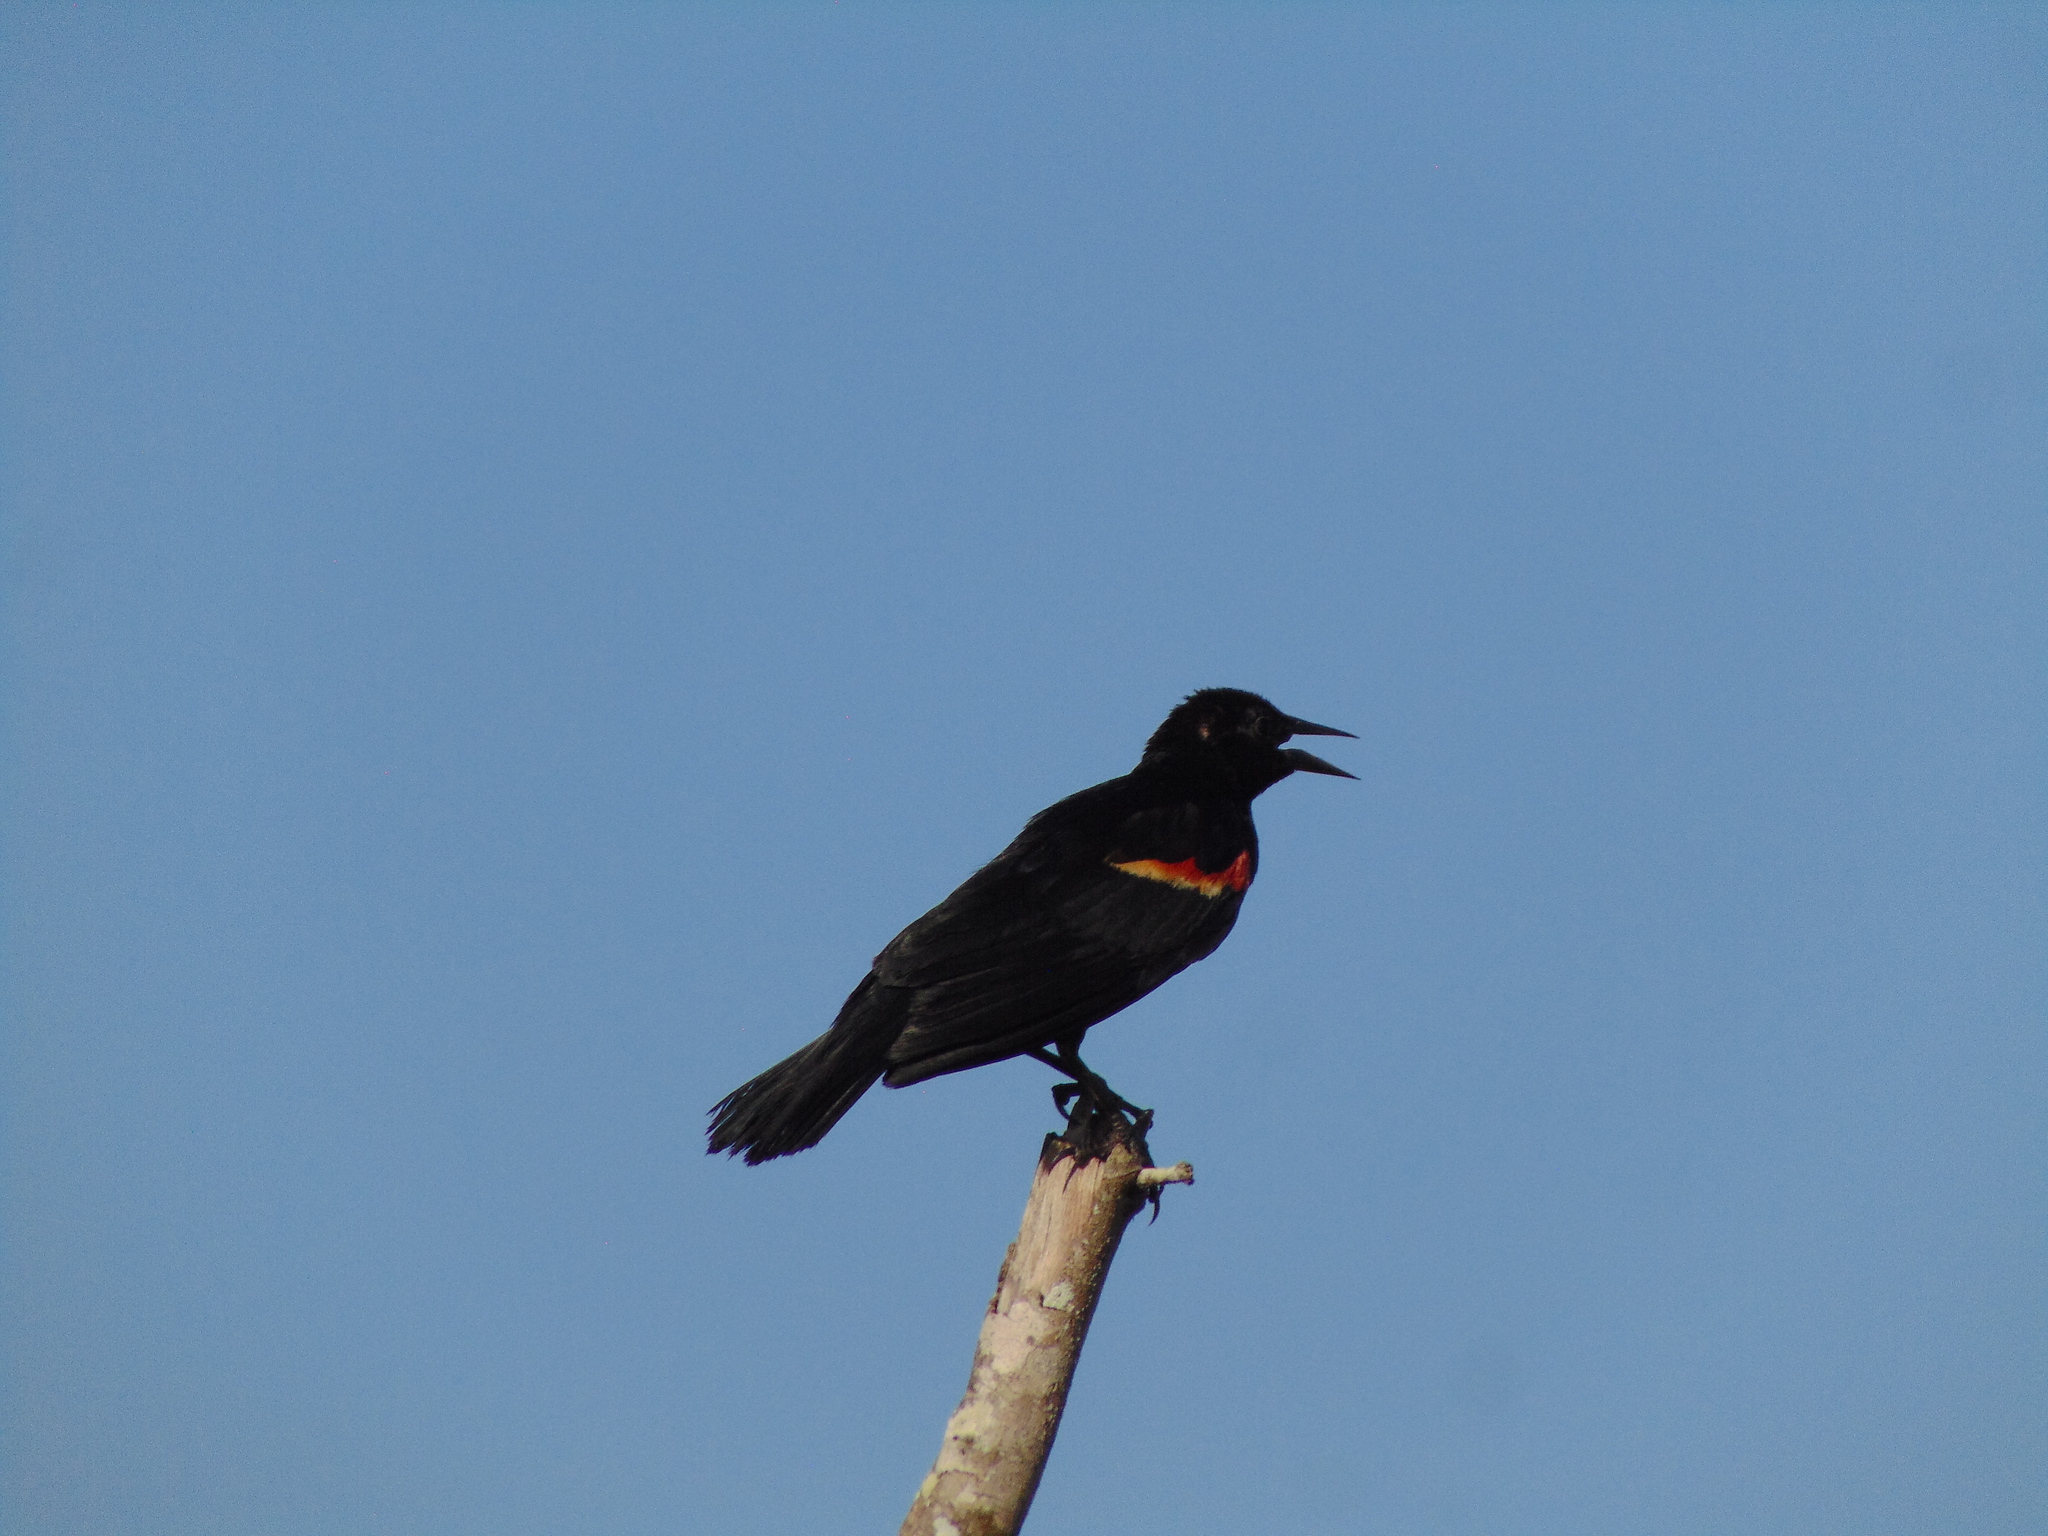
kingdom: Animalia
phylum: Chordata
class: Aves
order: Passeriformes
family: Icteridae
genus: Agelaius
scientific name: Agelaius phoeniceus
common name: Red-winged blackbird
